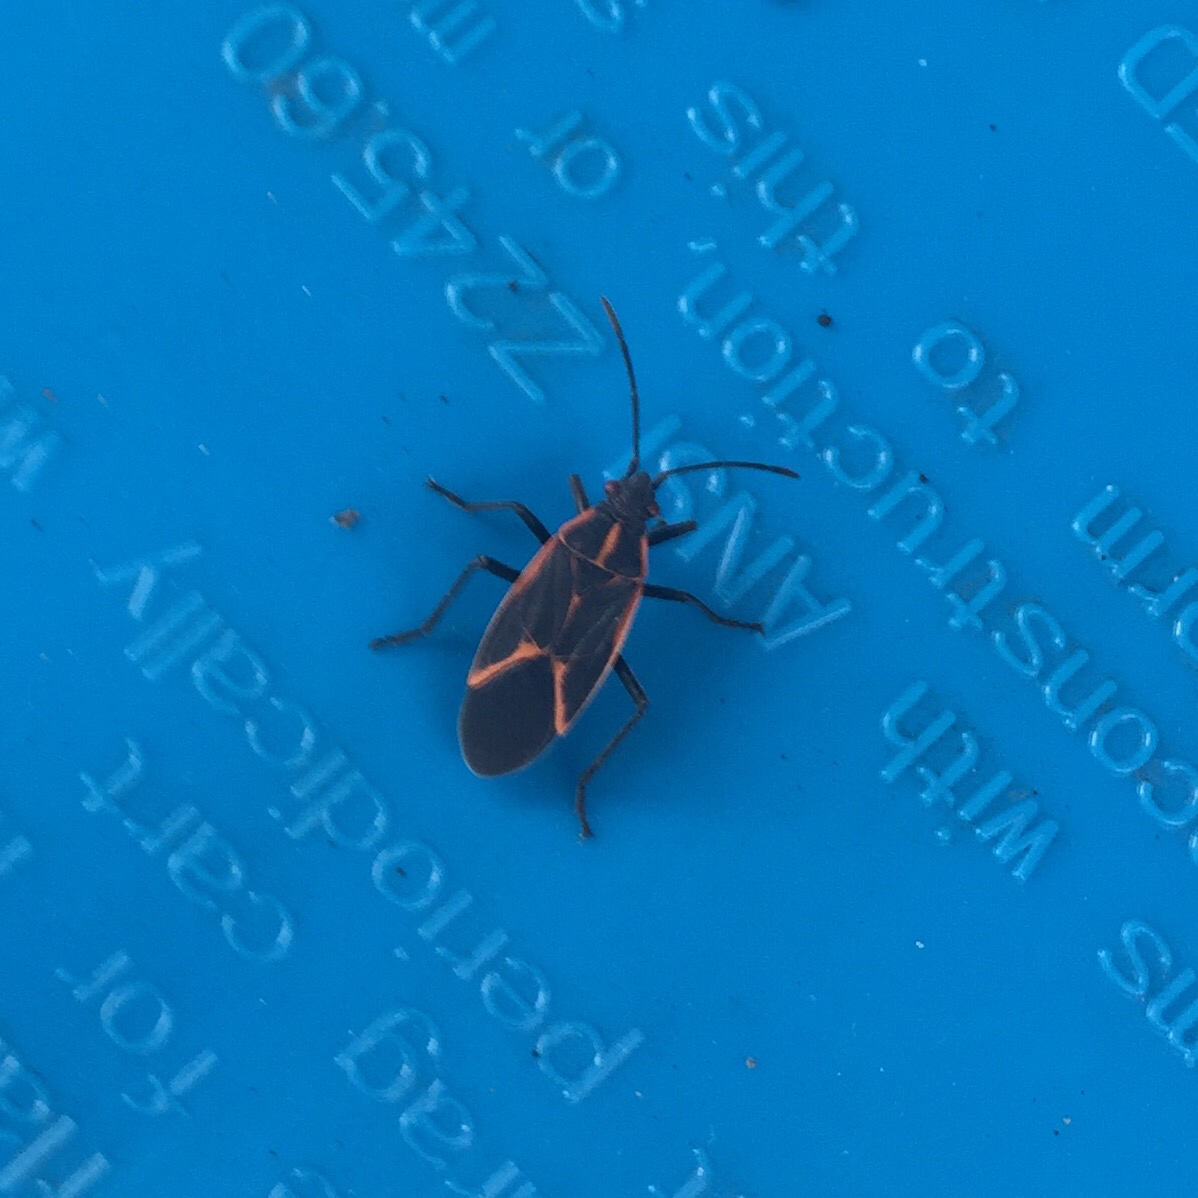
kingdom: Animalia
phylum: Arthropoda
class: Insecta
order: Hemiptera
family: Rhopalidae
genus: Boisea
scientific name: Boisea trivittata
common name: Boxelder bug
